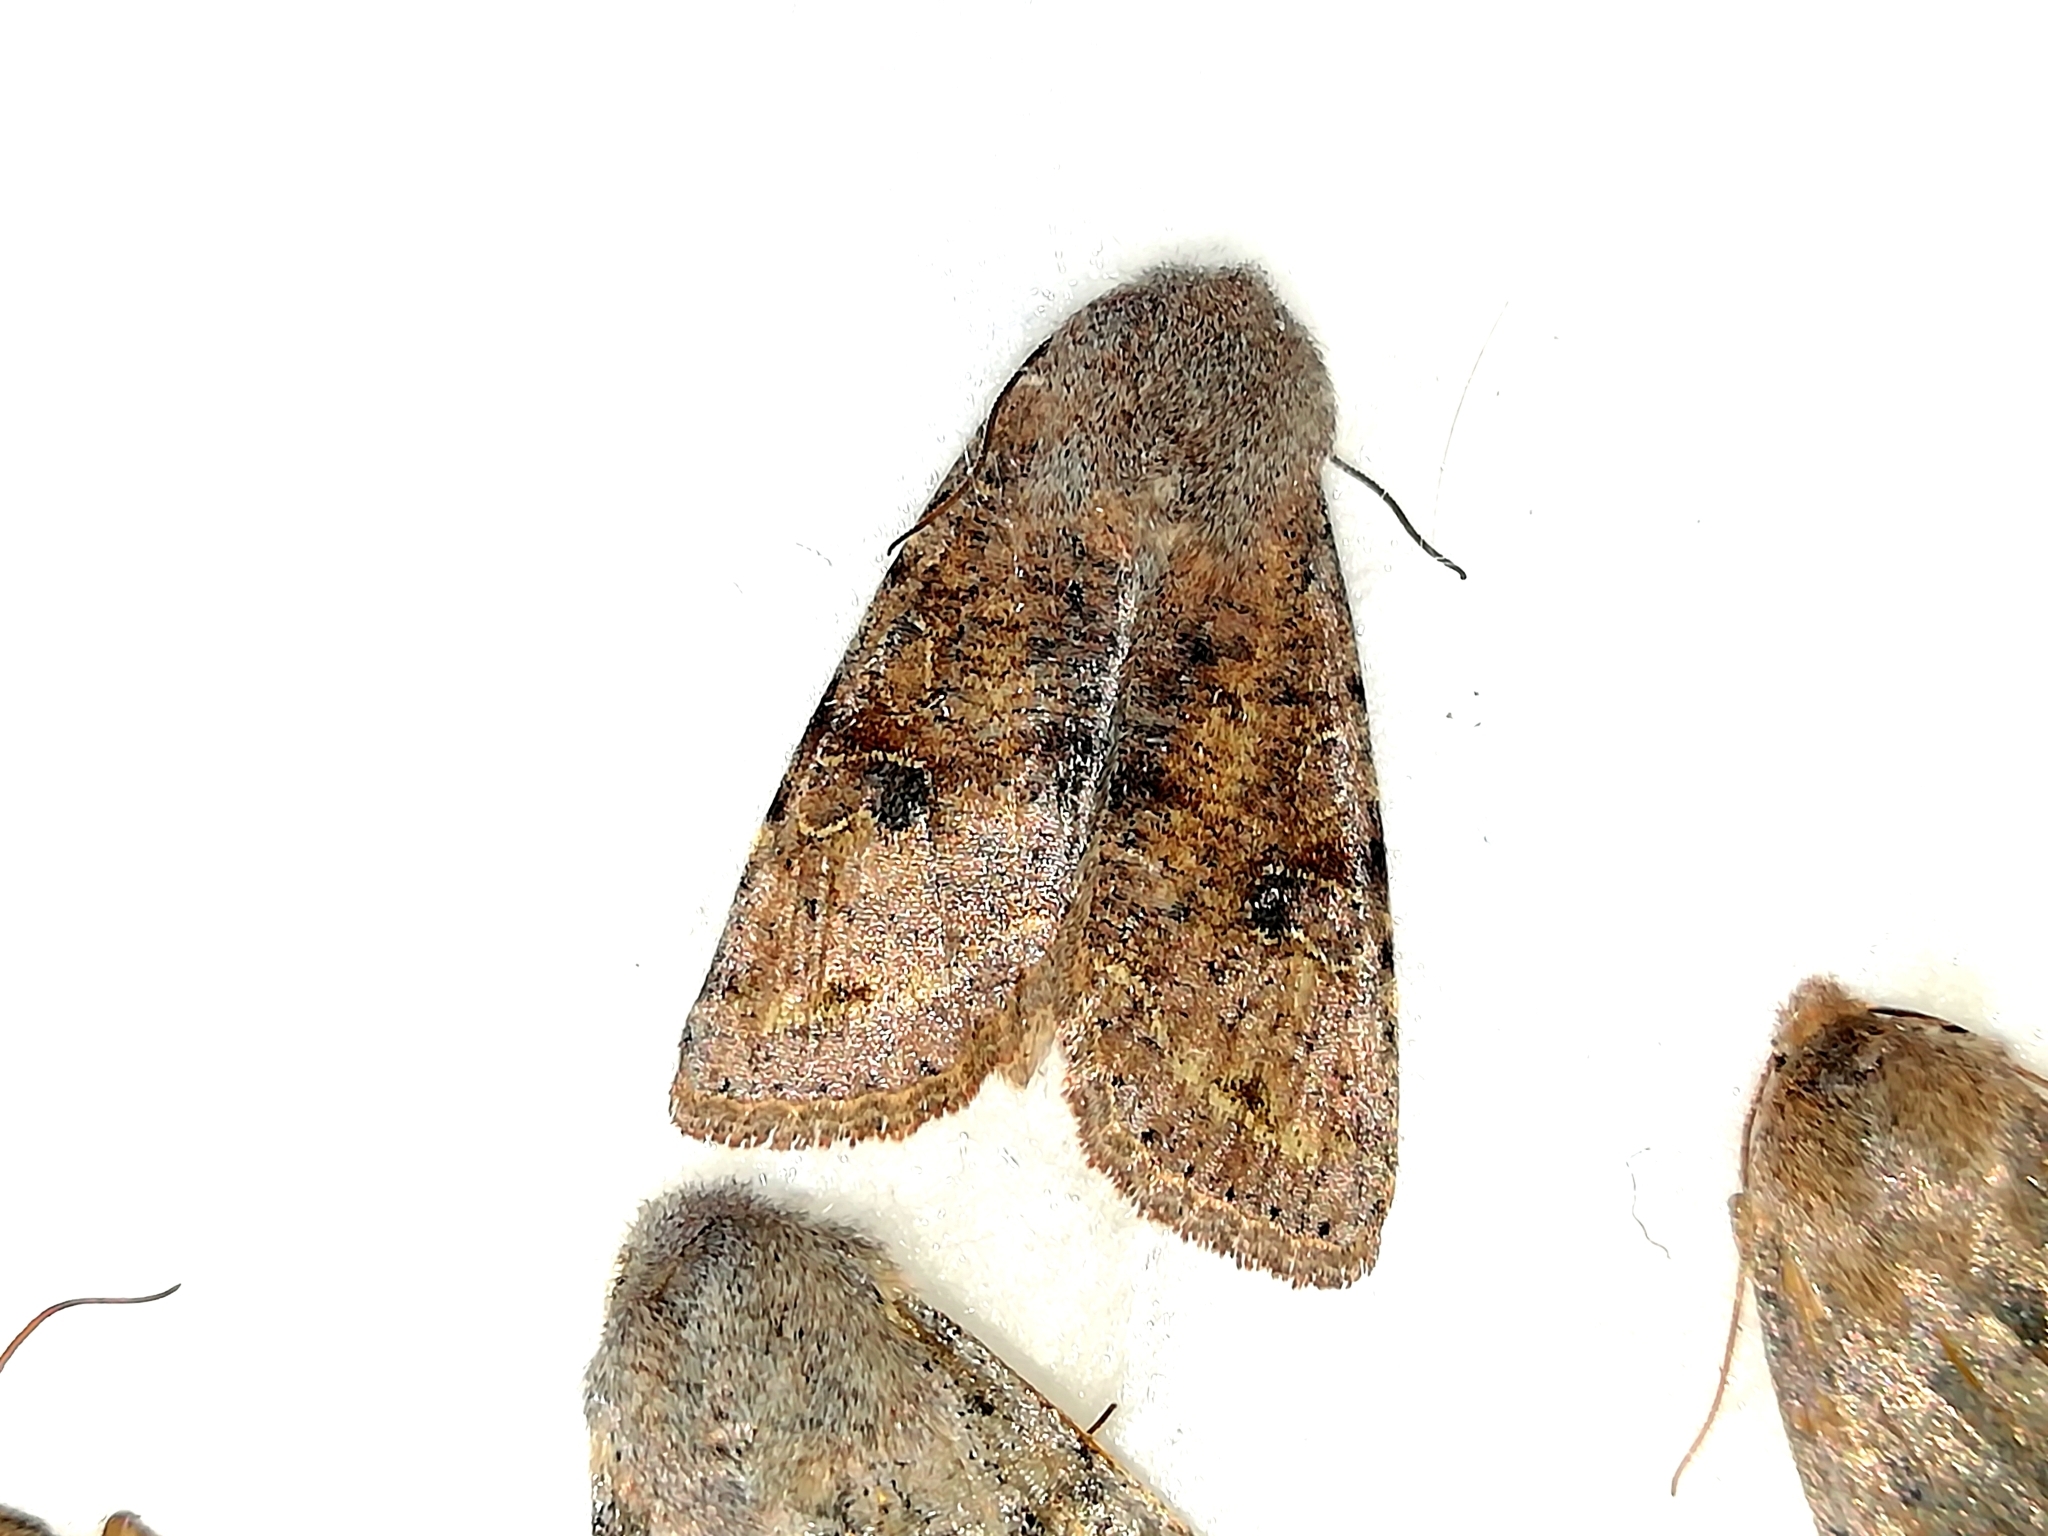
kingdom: Animalia
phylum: Arthropoda
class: Insecta
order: Lepidoptera
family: Noctuidae
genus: Orthosia
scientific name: Orthosia incerta
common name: Clouded drab
